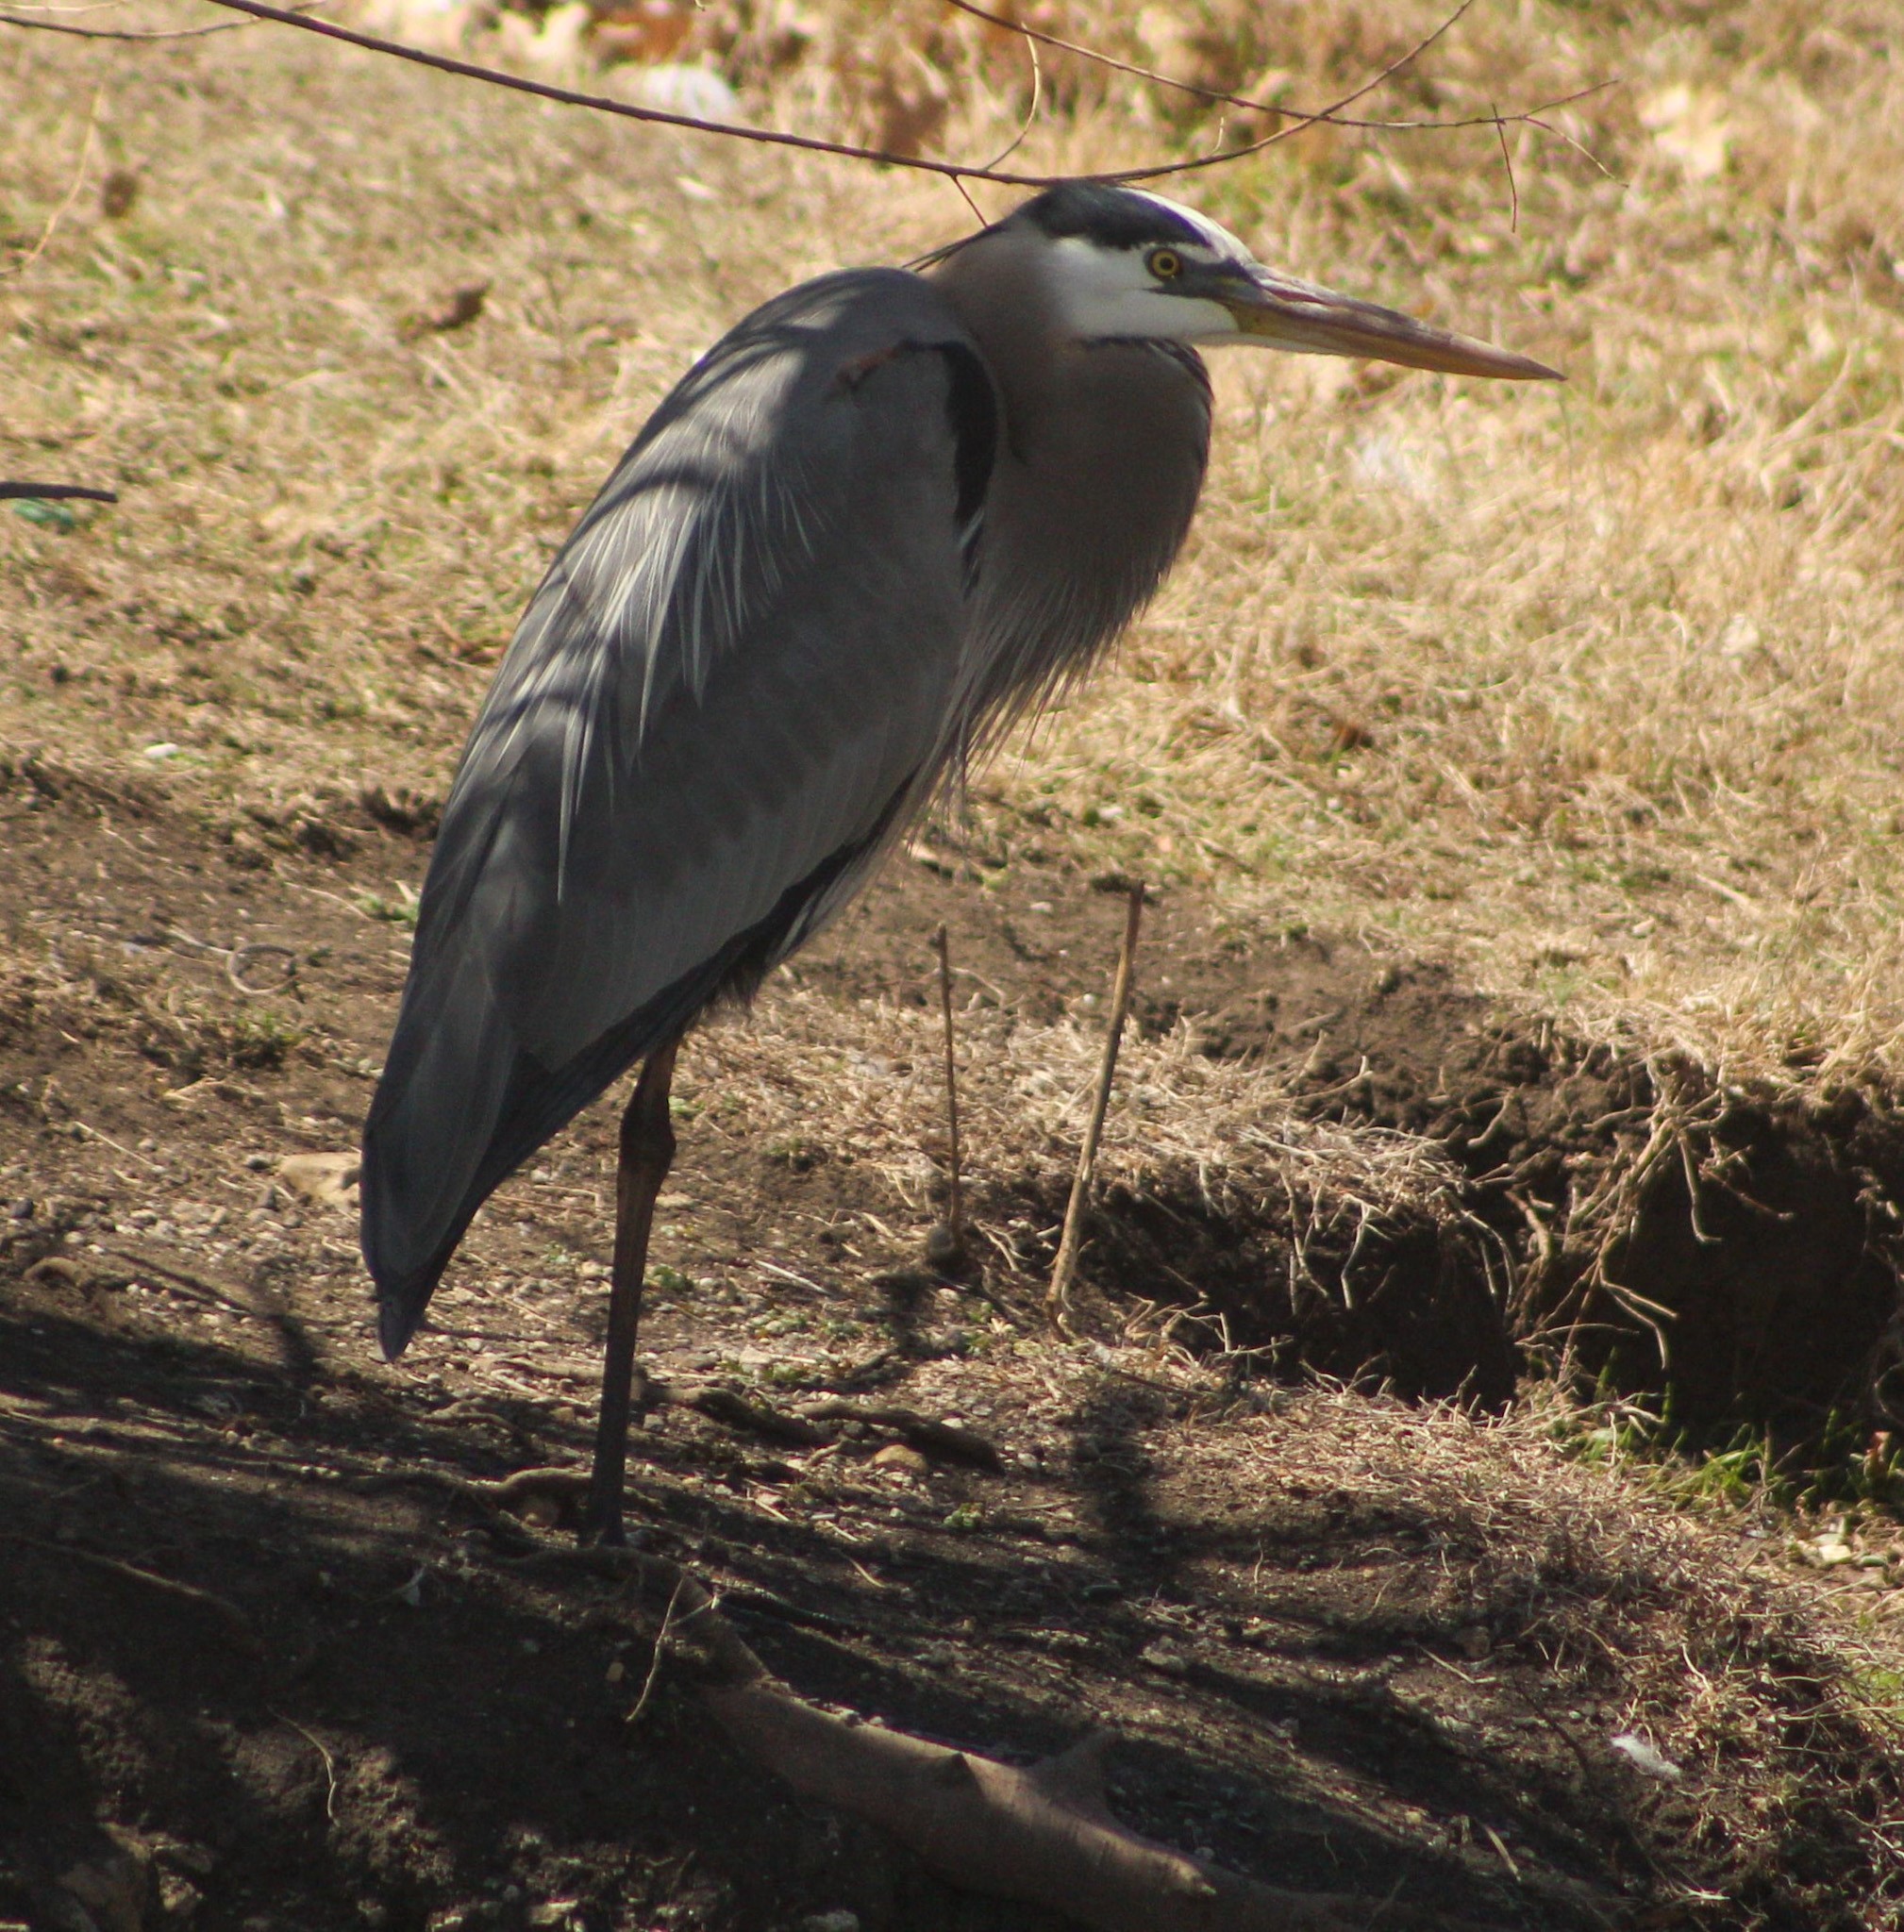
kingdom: Animalia
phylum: Chordata
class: Aves
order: Pelecaniformes
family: Ardeidae
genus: Ardea
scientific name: Ardea herodias
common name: Great blue heron
